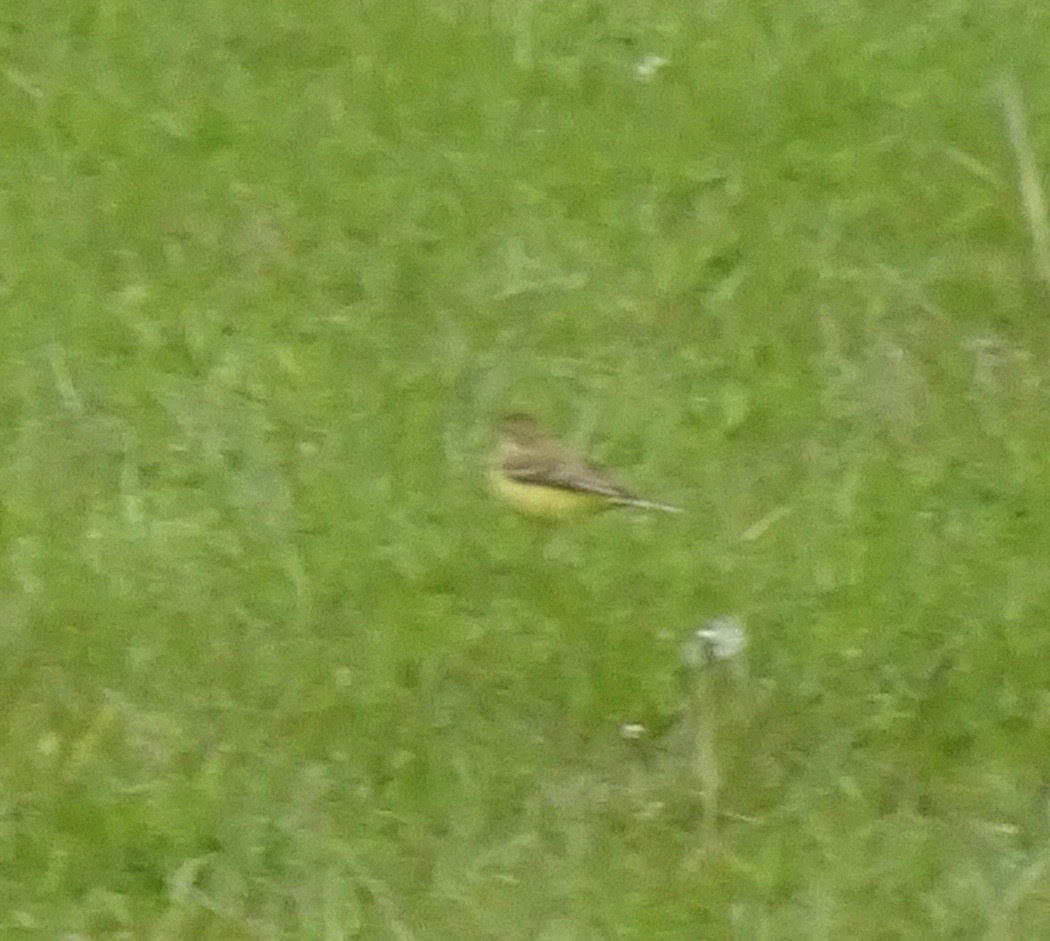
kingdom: Animalia
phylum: Chordata
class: Aves
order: Passeriformes
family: Motacillidae
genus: Motacilla
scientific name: Motacilla flava
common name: Western yellow wagtail
